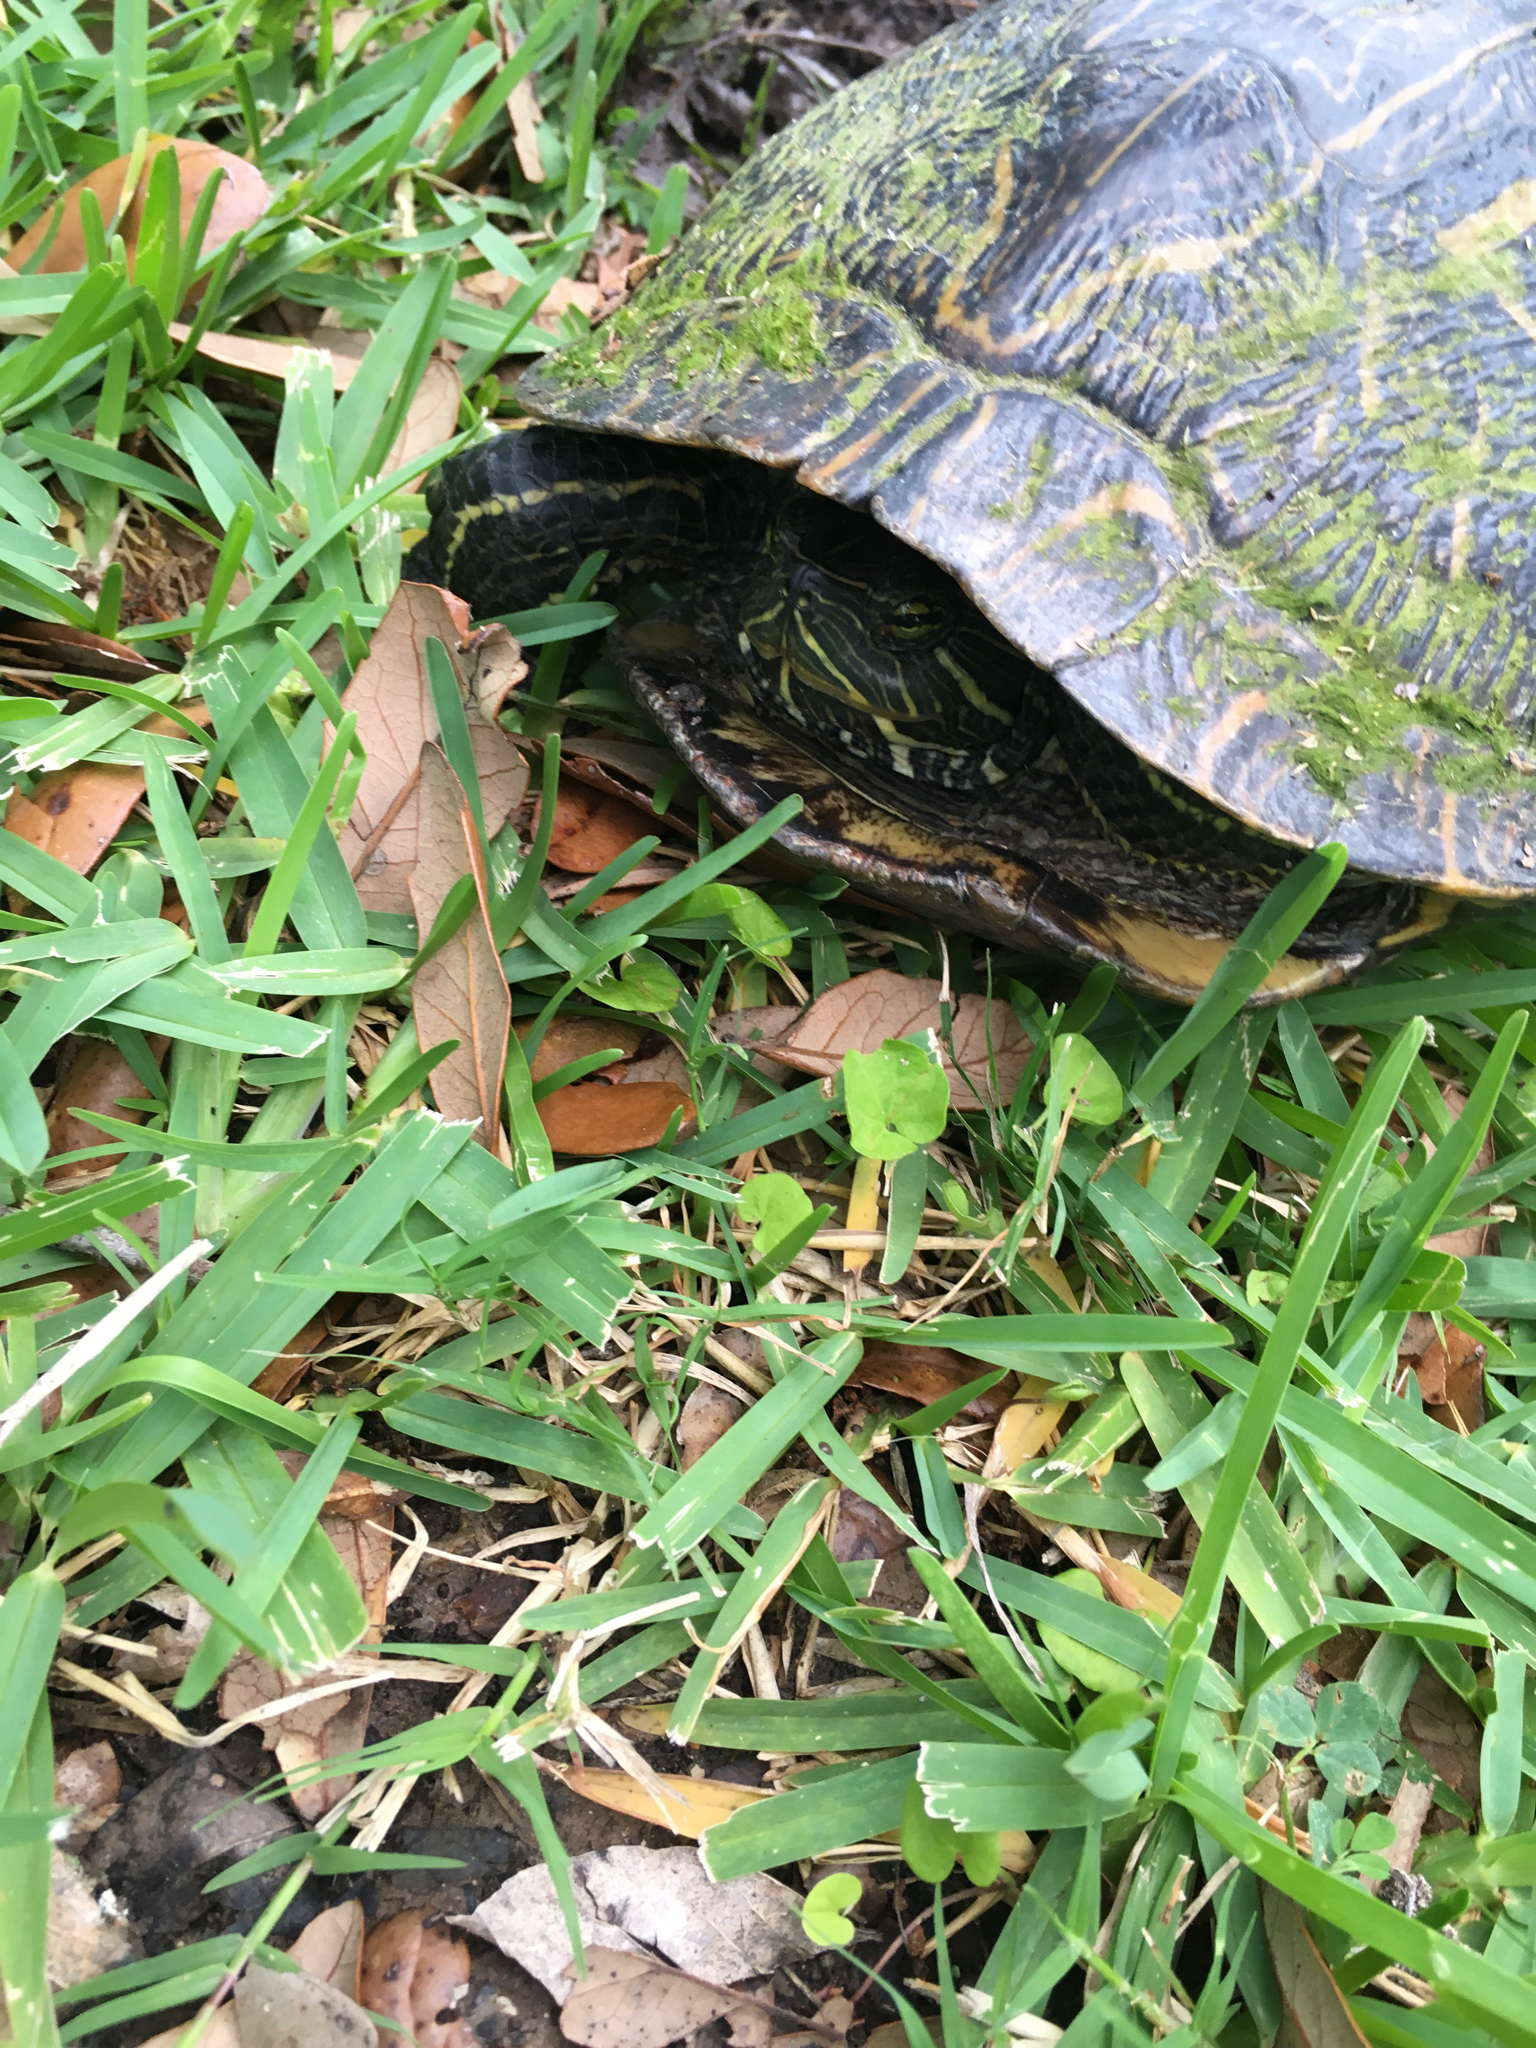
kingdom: Animalia
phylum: Chordata
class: Testudines
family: Emydidae
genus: Trachemys
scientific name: Trachemys scripta
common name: Slider
